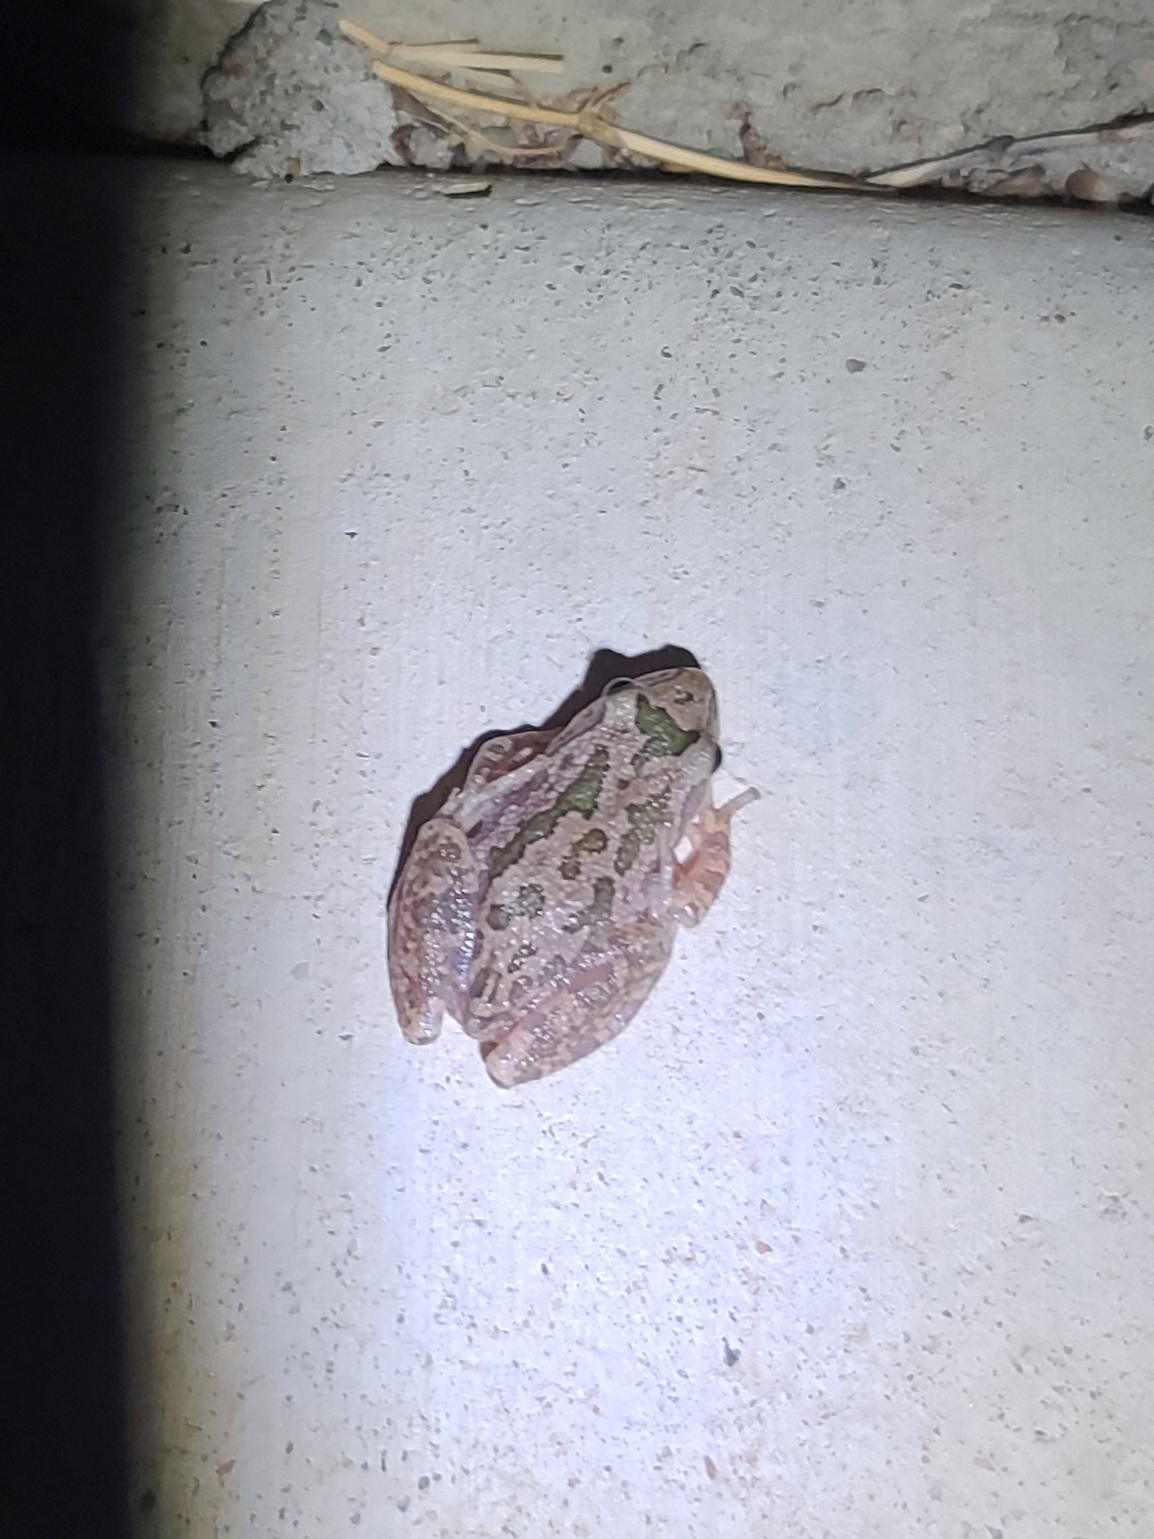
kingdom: Animalia
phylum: Chordata
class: Amphibia
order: Anura
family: Hylidae
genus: Pseudacris
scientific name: Pseudacris clarkii
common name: Spotted chorus frog
